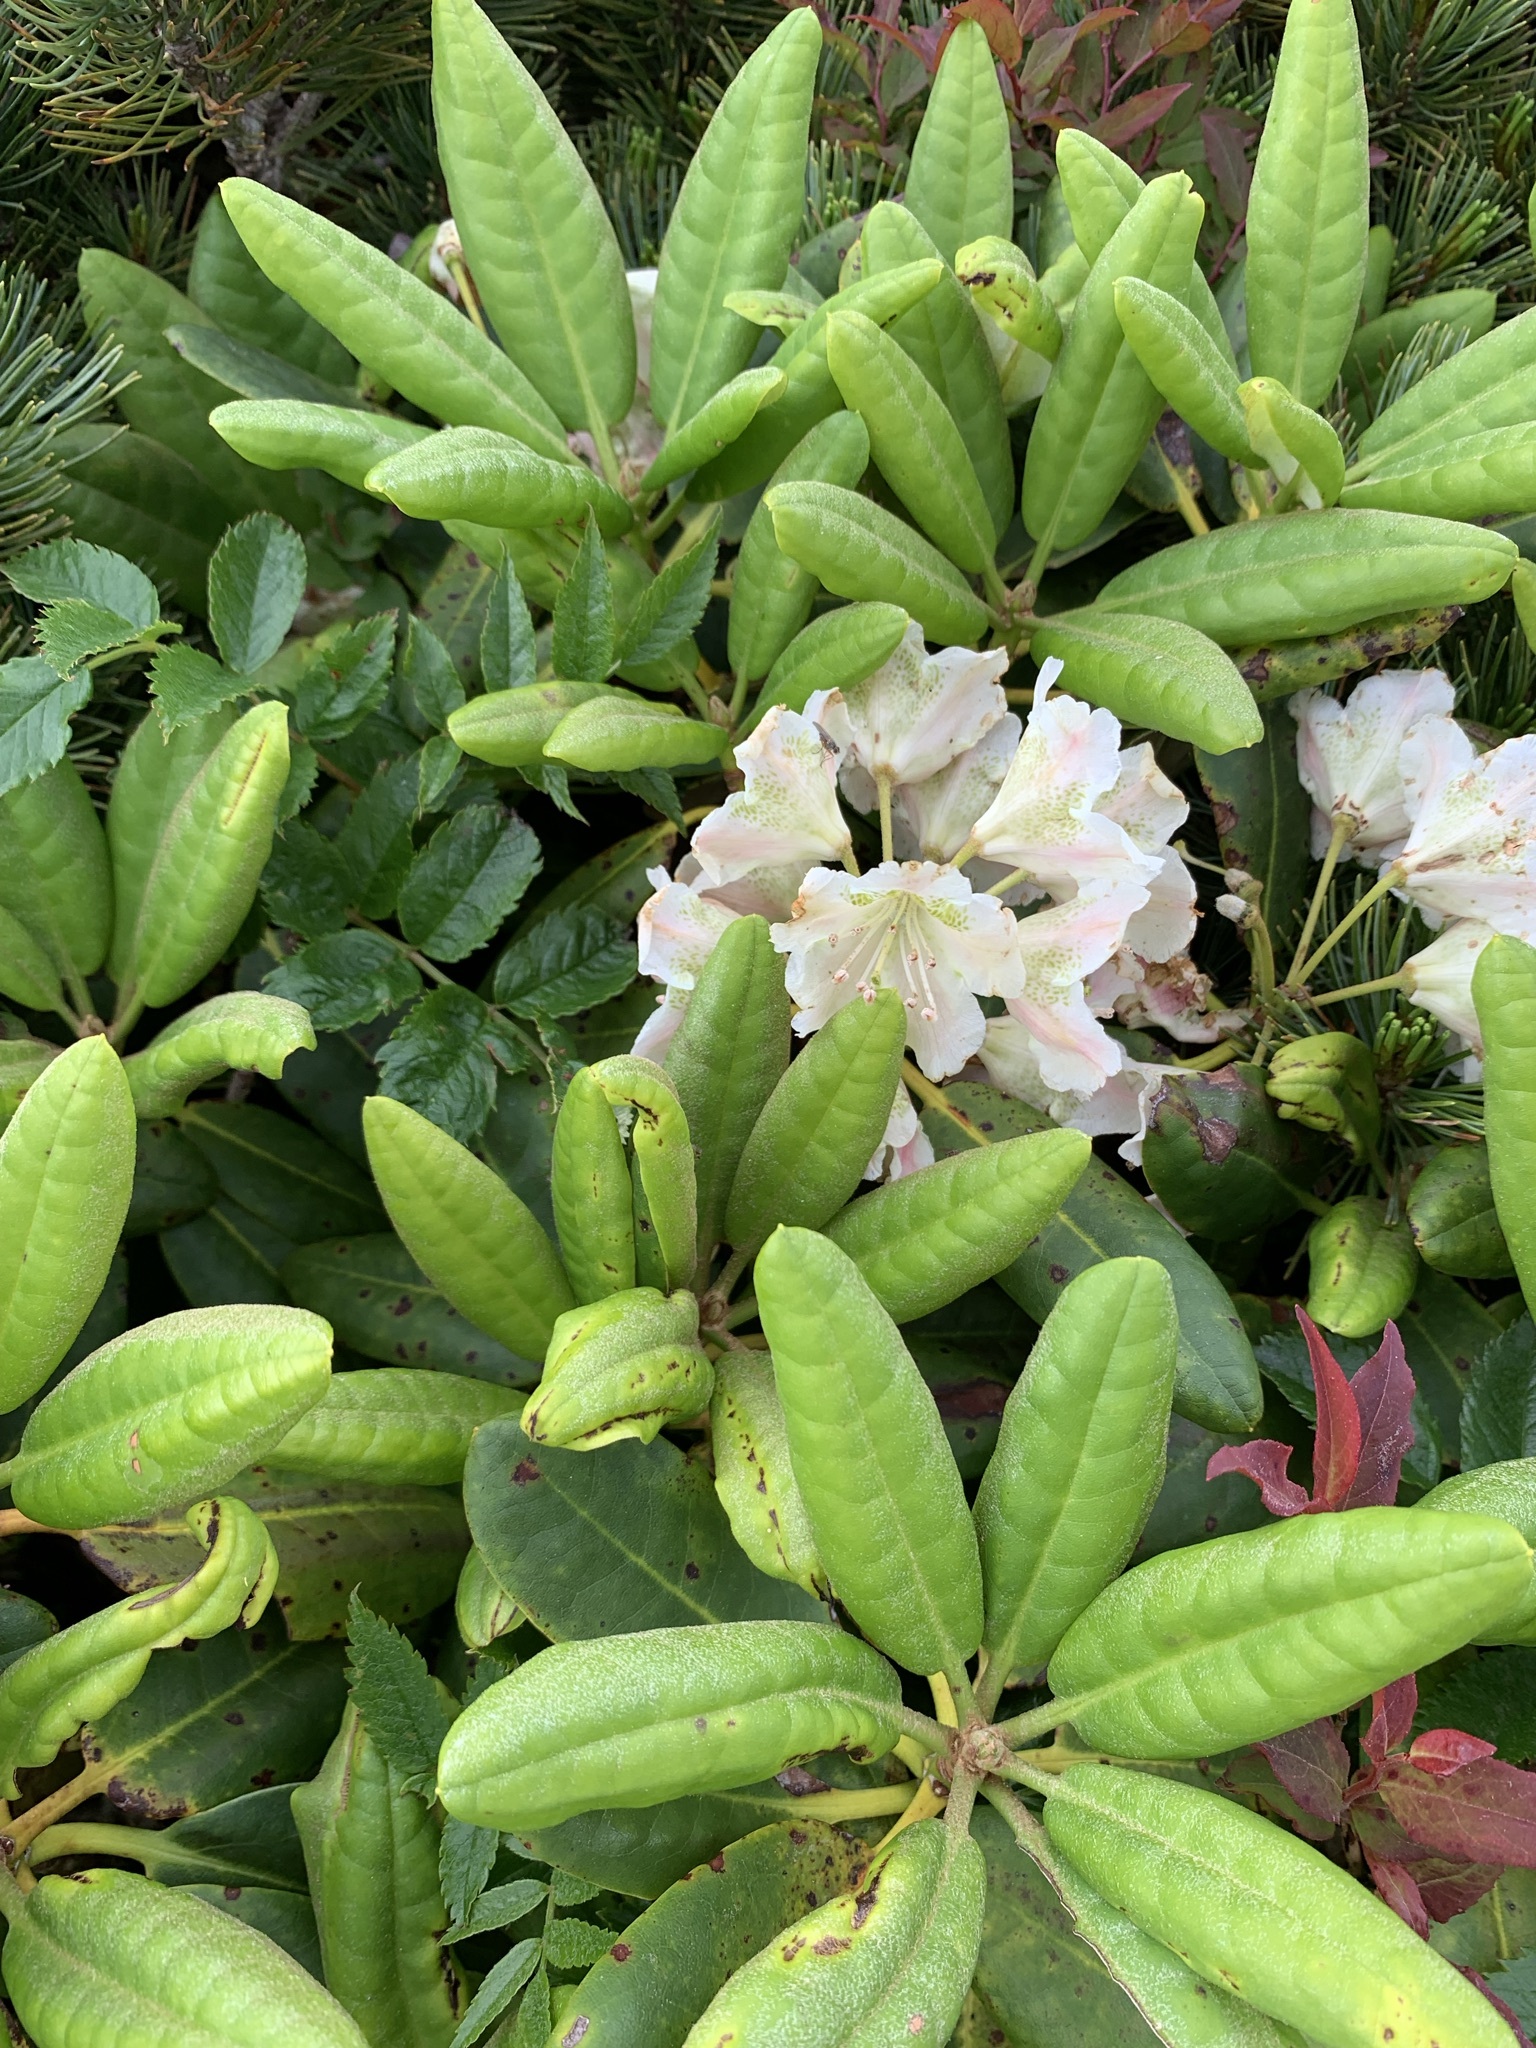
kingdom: Plantae
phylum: Tracheophyta
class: Magnoliopsida
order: Ericales
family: Ericaceae
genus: Rhododendron
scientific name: Rhododendron brachycarpum
